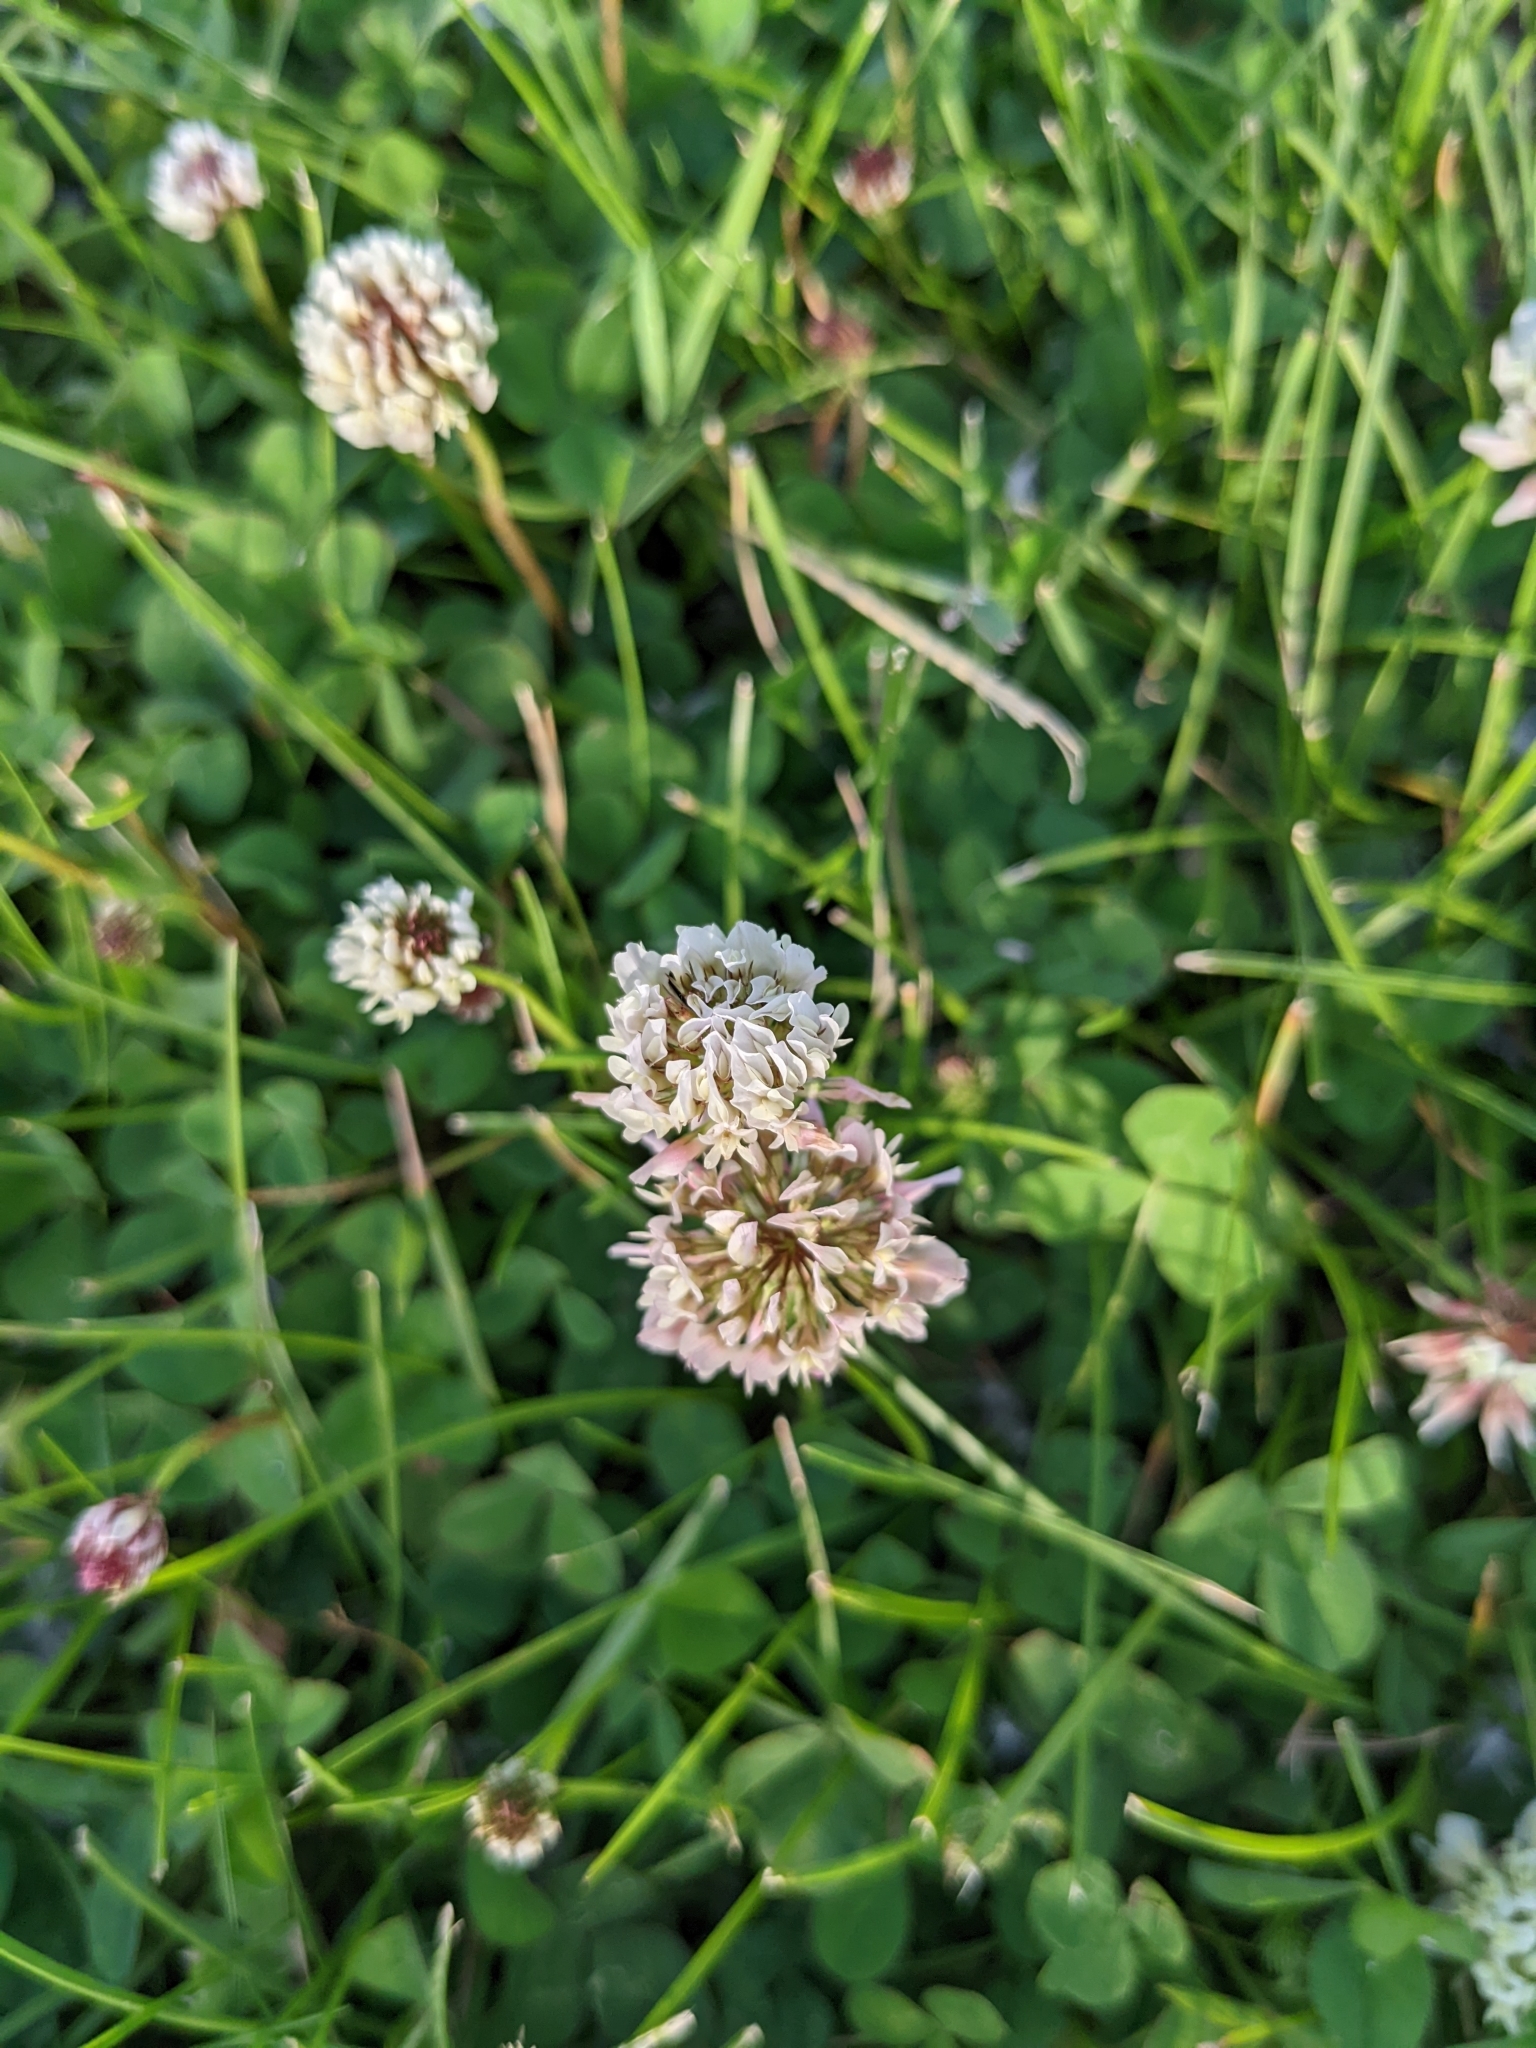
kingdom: Plantae
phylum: Tracheophyta
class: Magnoliopsida
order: Fabales
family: Fabaceae
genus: Trifolium
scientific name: Trifolium repens
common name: White clover
